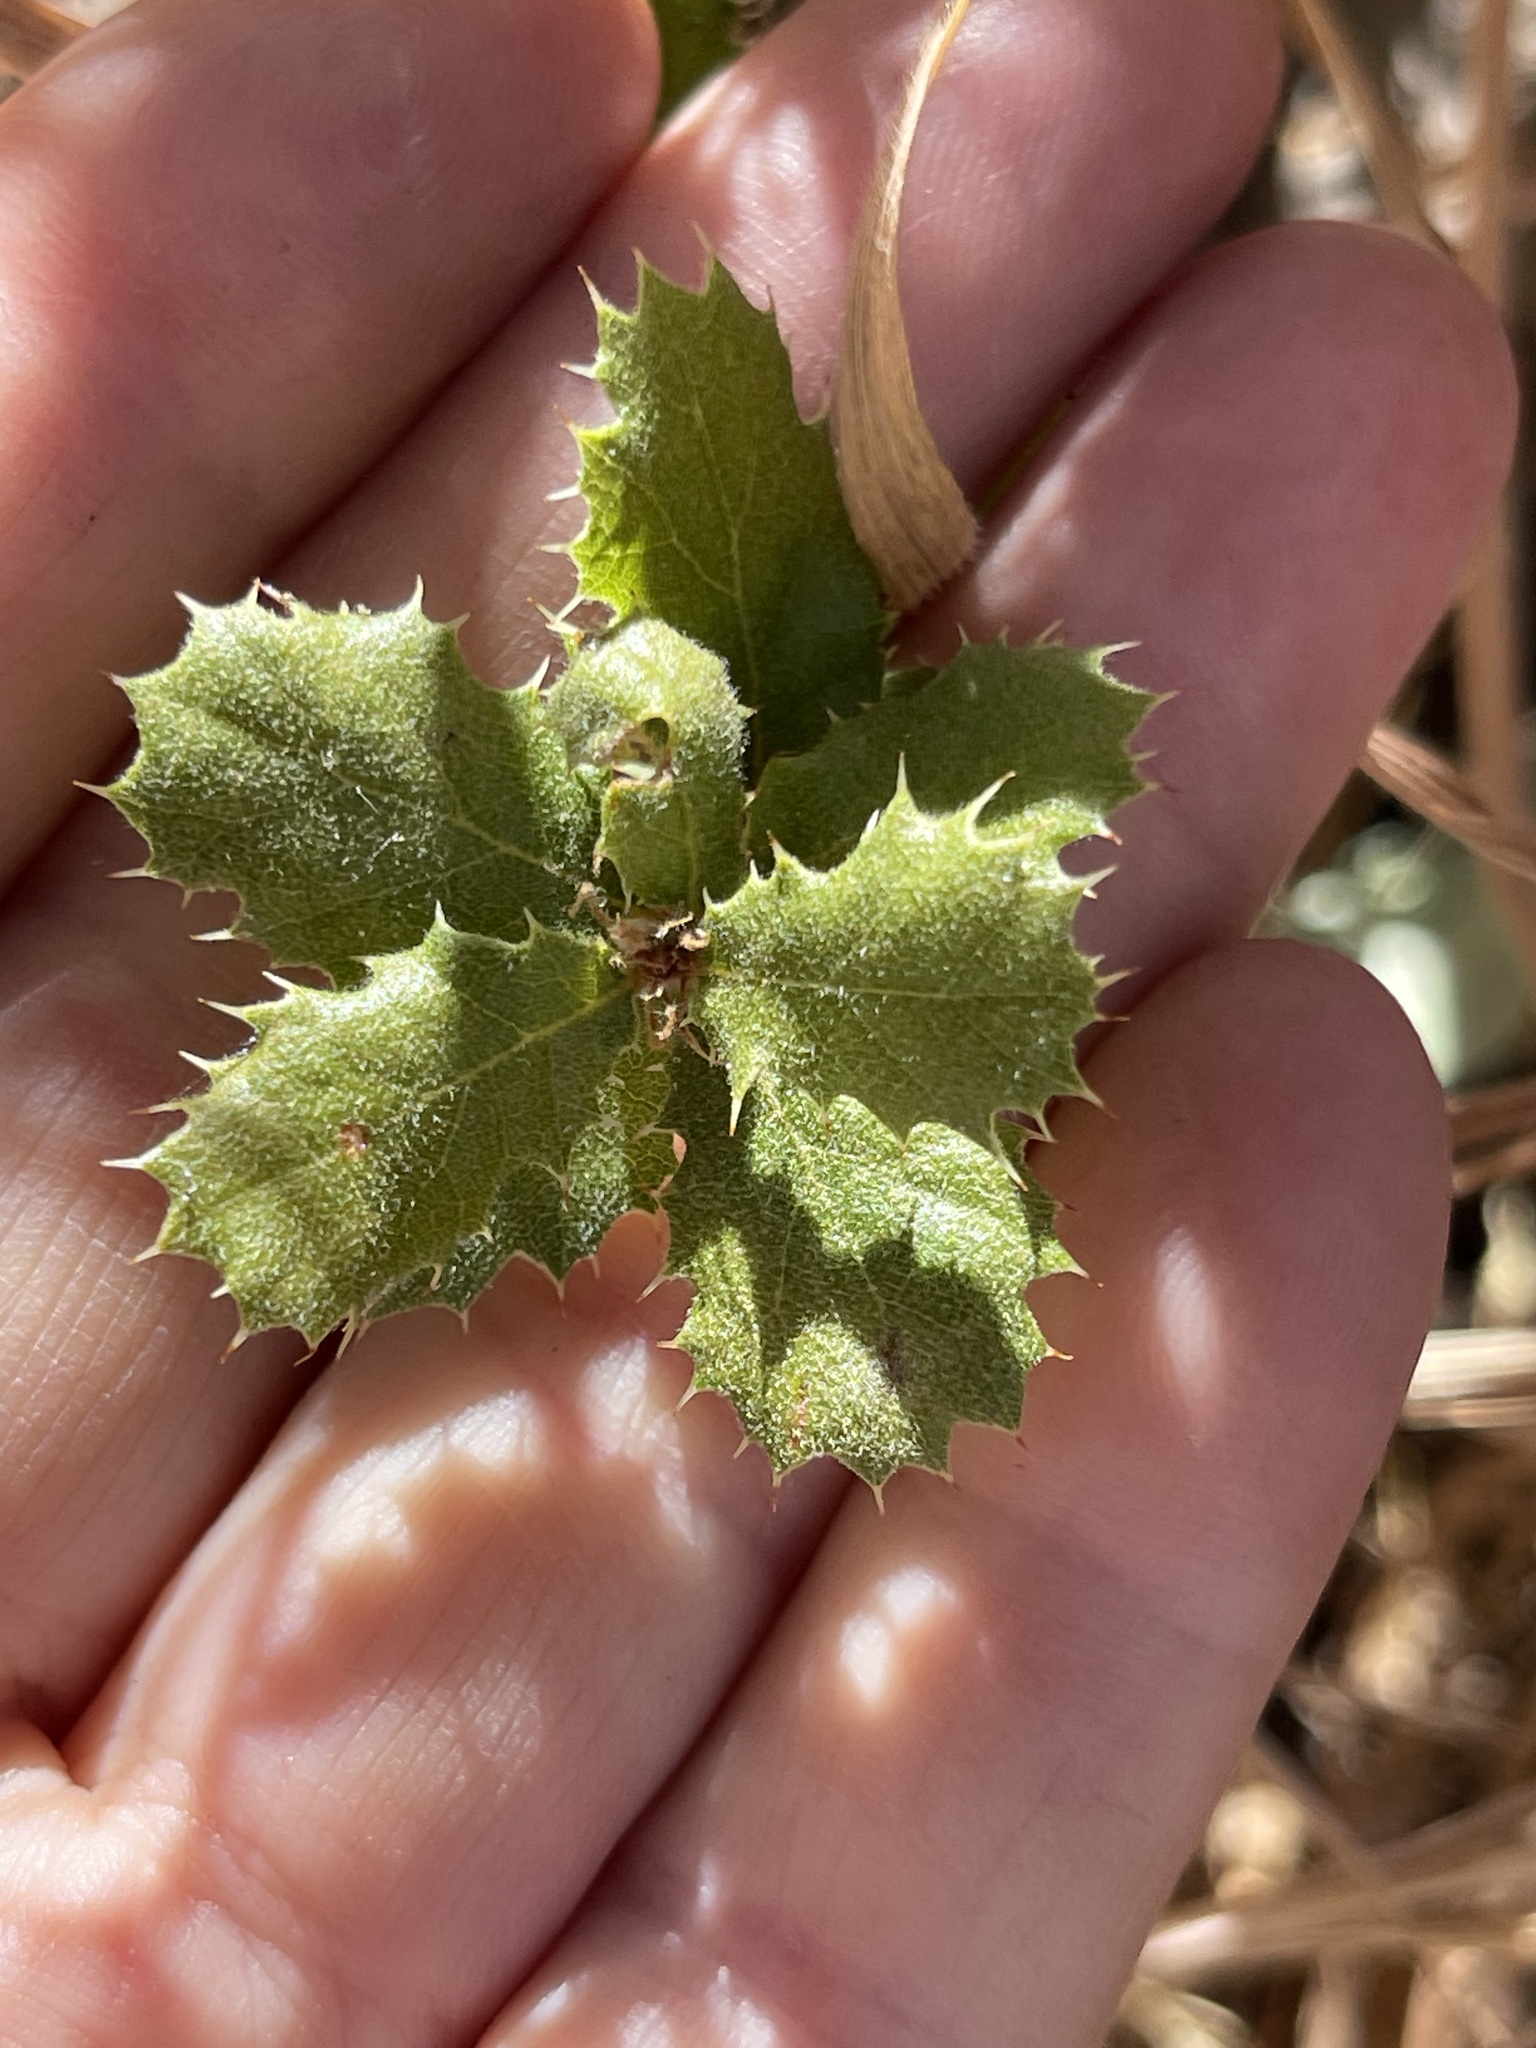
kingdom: Plantae
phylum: Tracheophyta
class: Magnoliopsida
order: Fagales
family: Fagaceae
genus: Quercus
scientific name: Quercus berberidifolia
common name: California scrub oak
